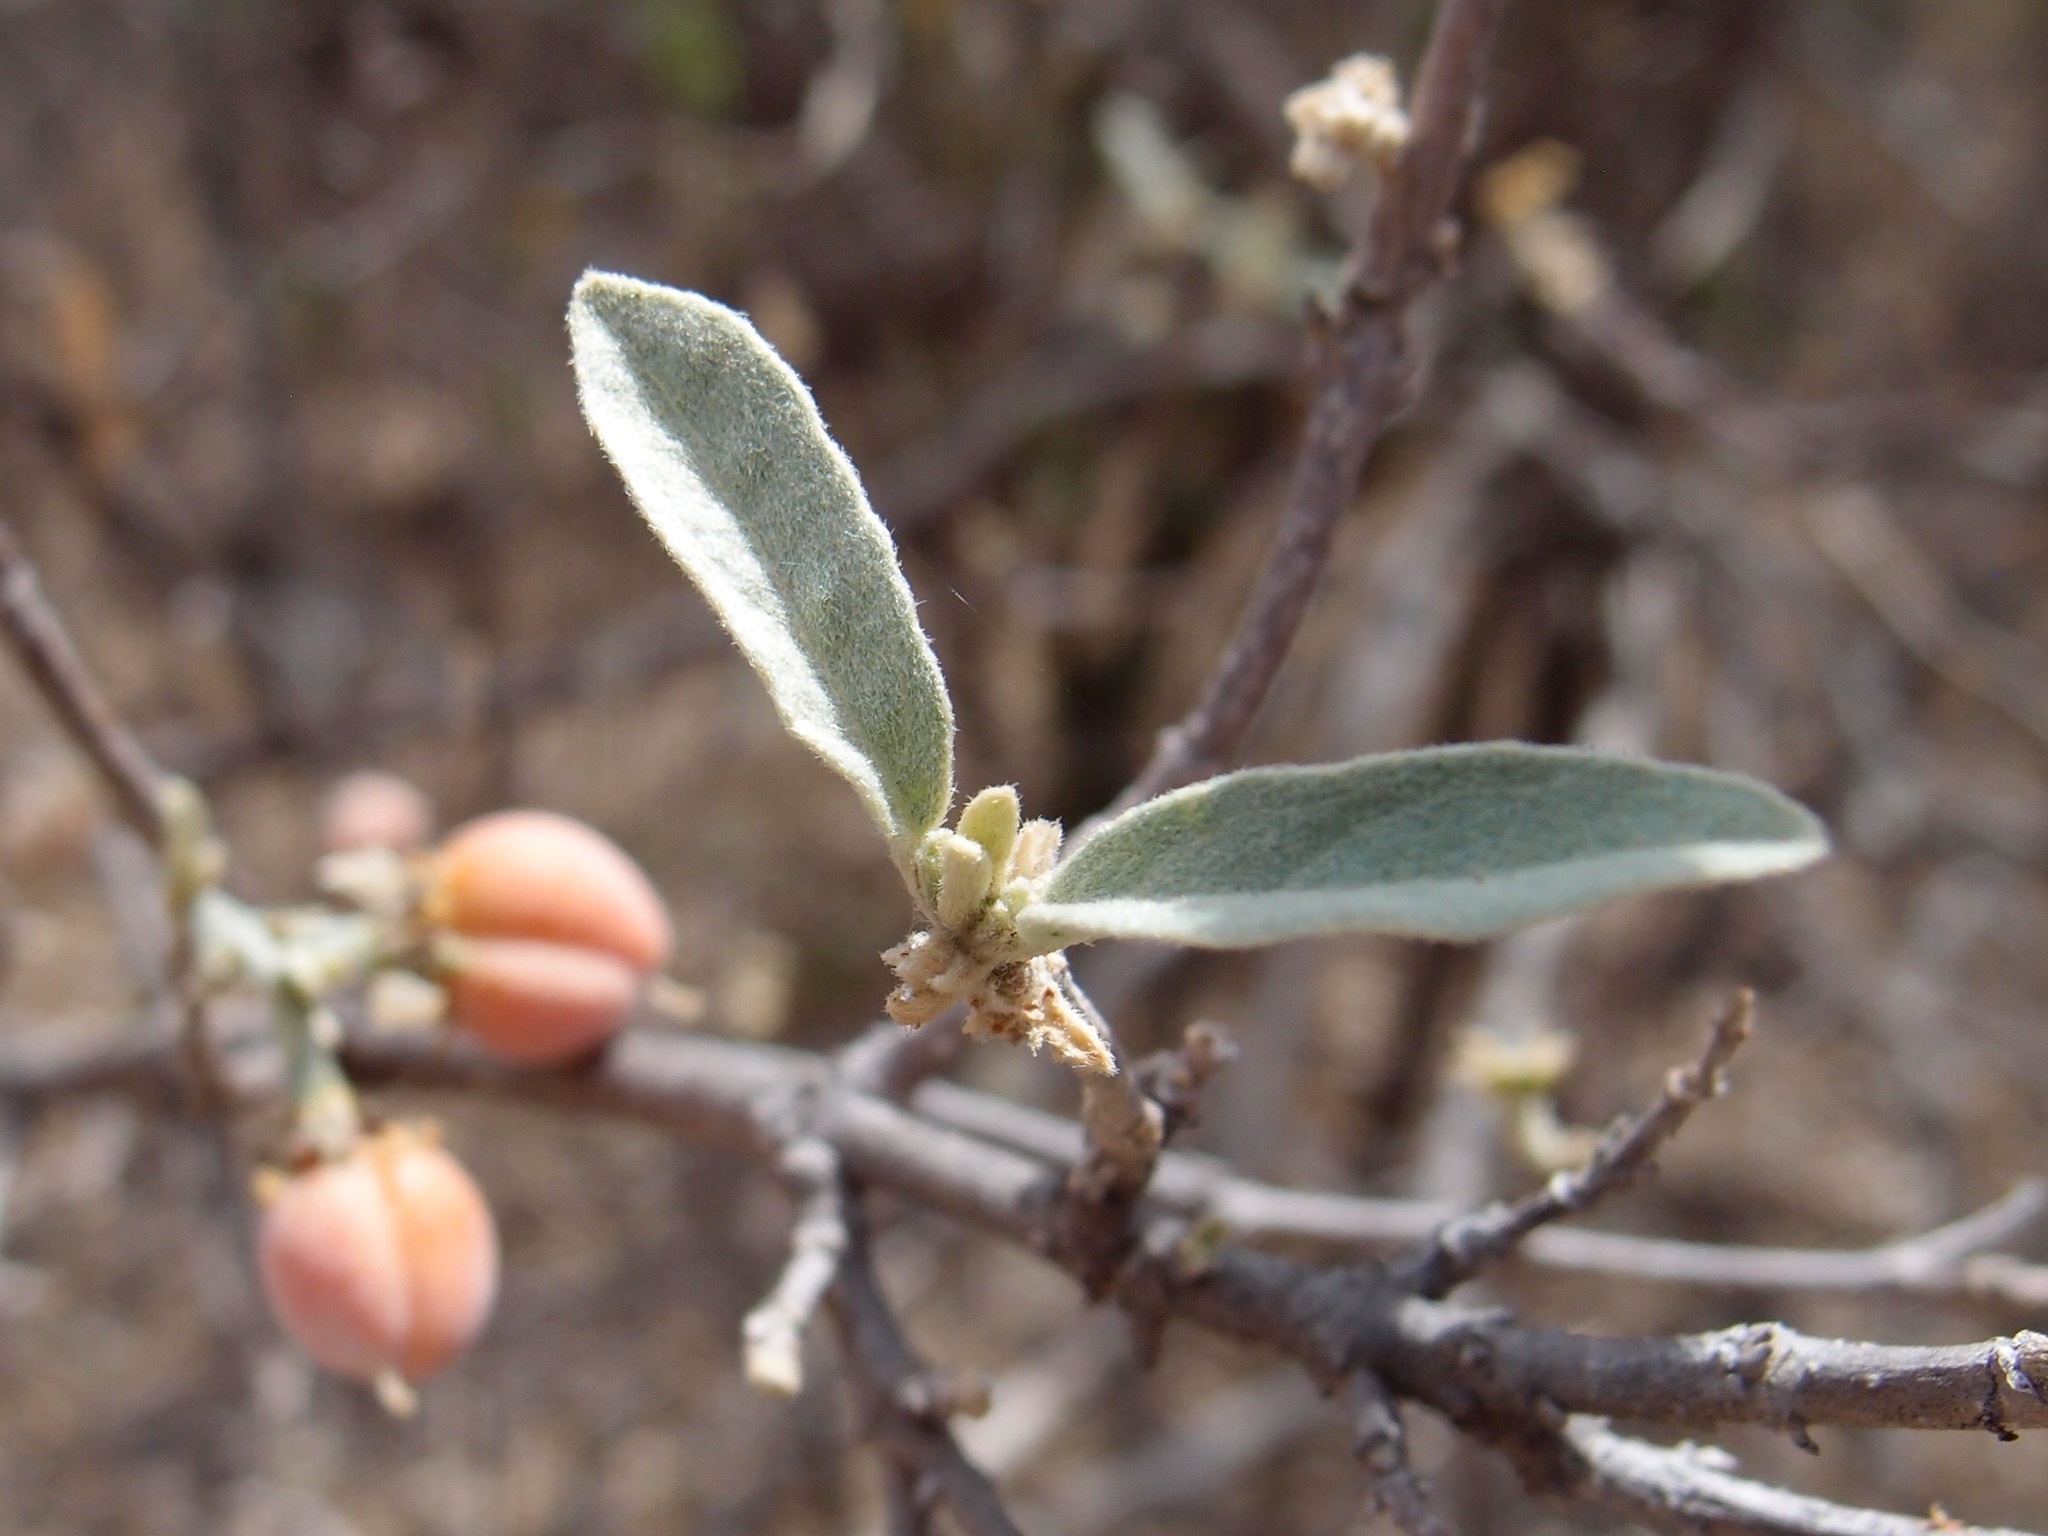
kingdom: Plantae
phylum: Tracheophyta
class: Magnoliopsida
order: Malpighiales
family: Malpighiaceae
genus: Bunchosia
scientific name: Bunchosia sonorensis
